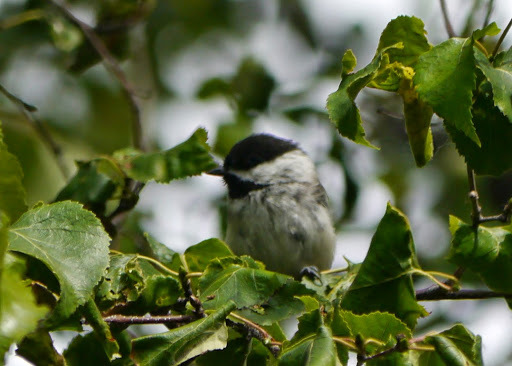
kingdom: Animalia
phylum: Chordata
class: Aves
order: Passeriformes
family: Paridae
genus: Poecile
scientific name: Poecile atricapillus
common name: Black-capped chickadee
